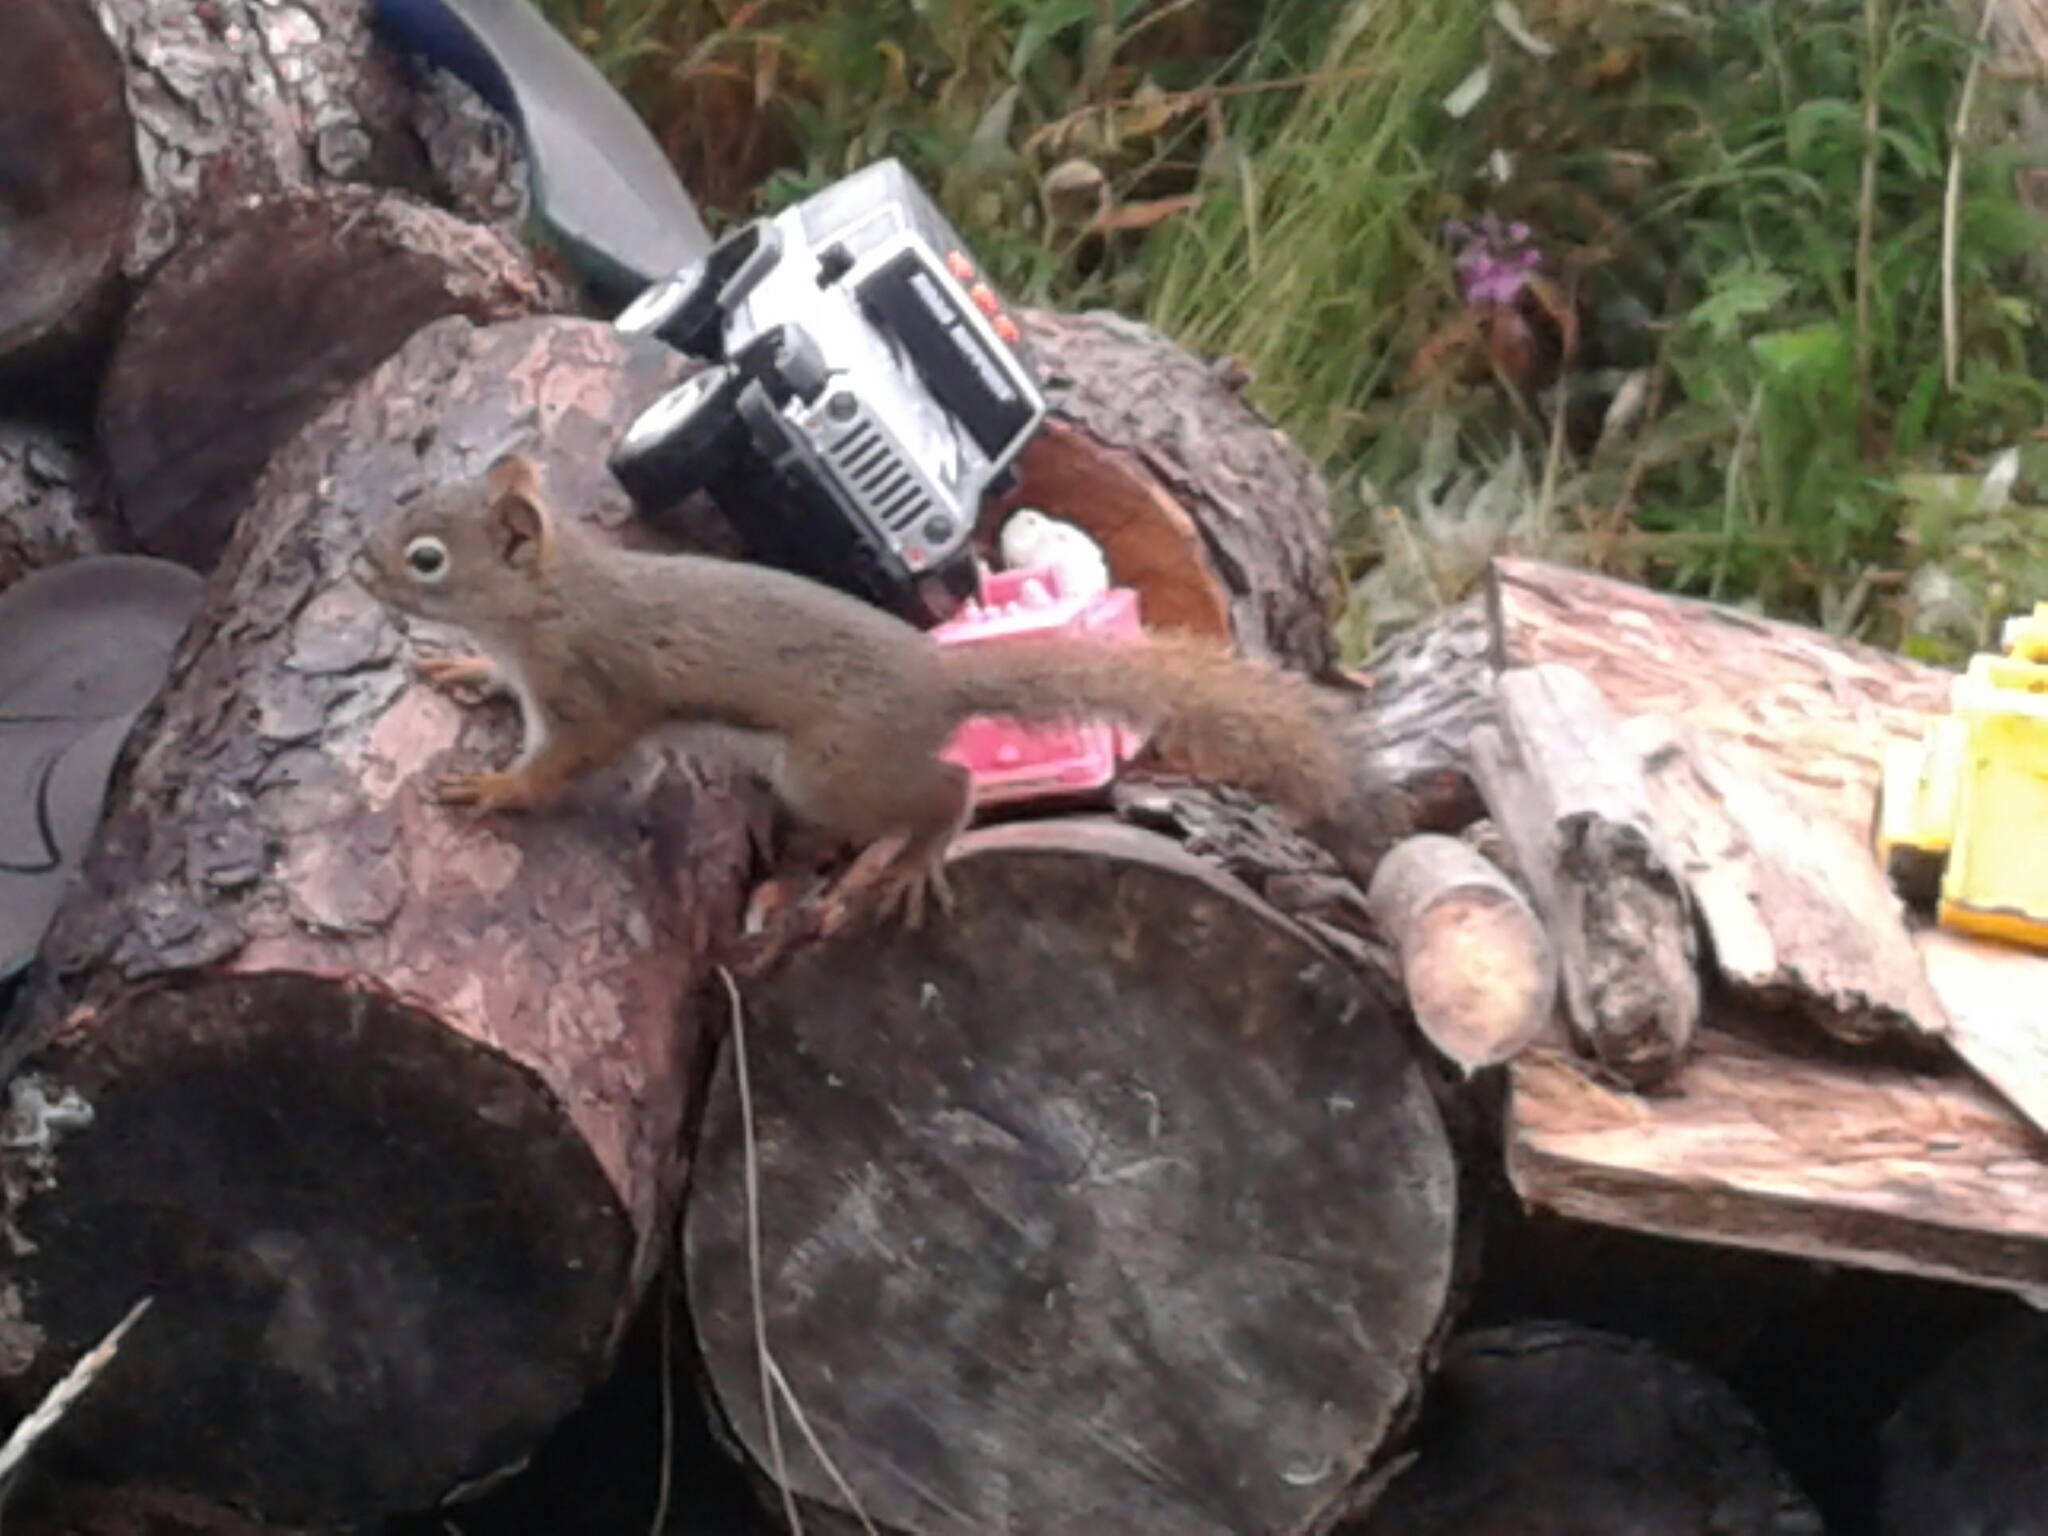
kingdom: Animalia
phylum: Chordata
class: Mammalia
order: Rodentia
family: Sciuridae
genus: Tamiasciurus
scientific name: Tamiasciurus hudsonicus
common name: Red squirrel
